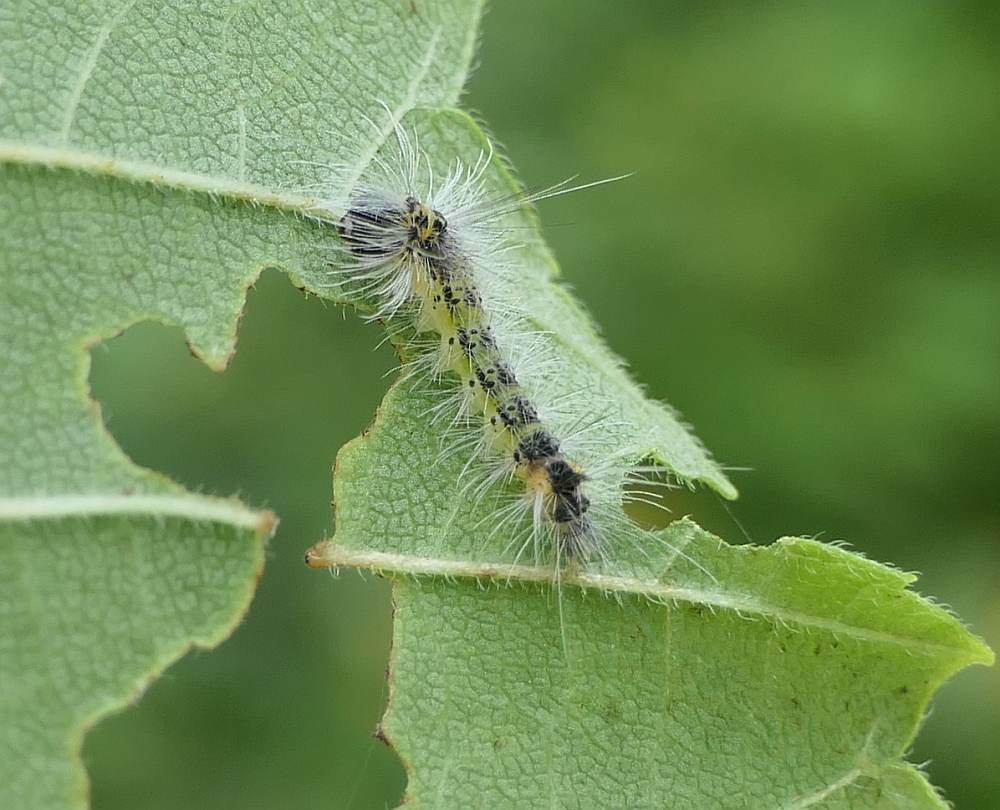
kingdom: Animalia
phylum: Arthropoda
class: Insecta
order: Lepidoptera
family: Erebidae
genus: Halysidota
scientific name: Halysidota tessellaris
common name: Banded tussock moth
